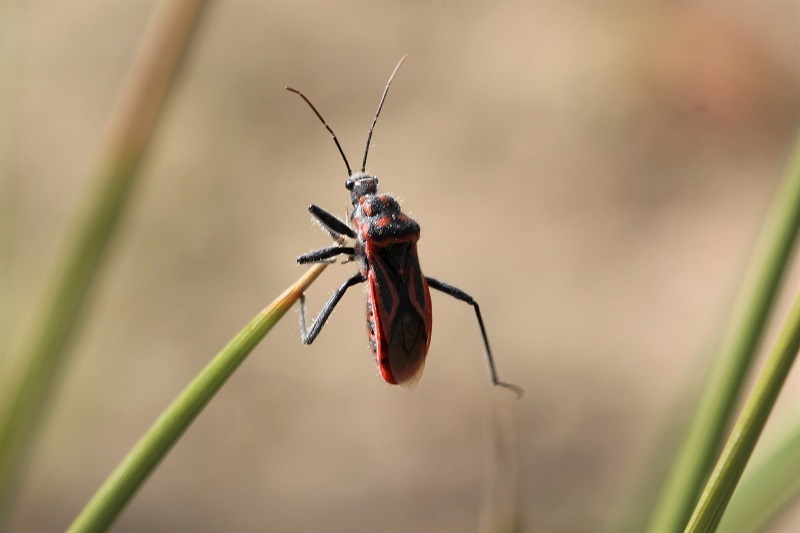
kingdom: Animalia
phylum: Arthropoda
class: Insecta
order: Hemiptera
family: Reduviidae
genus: Coranopsis
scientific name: Coranopsis vittata
